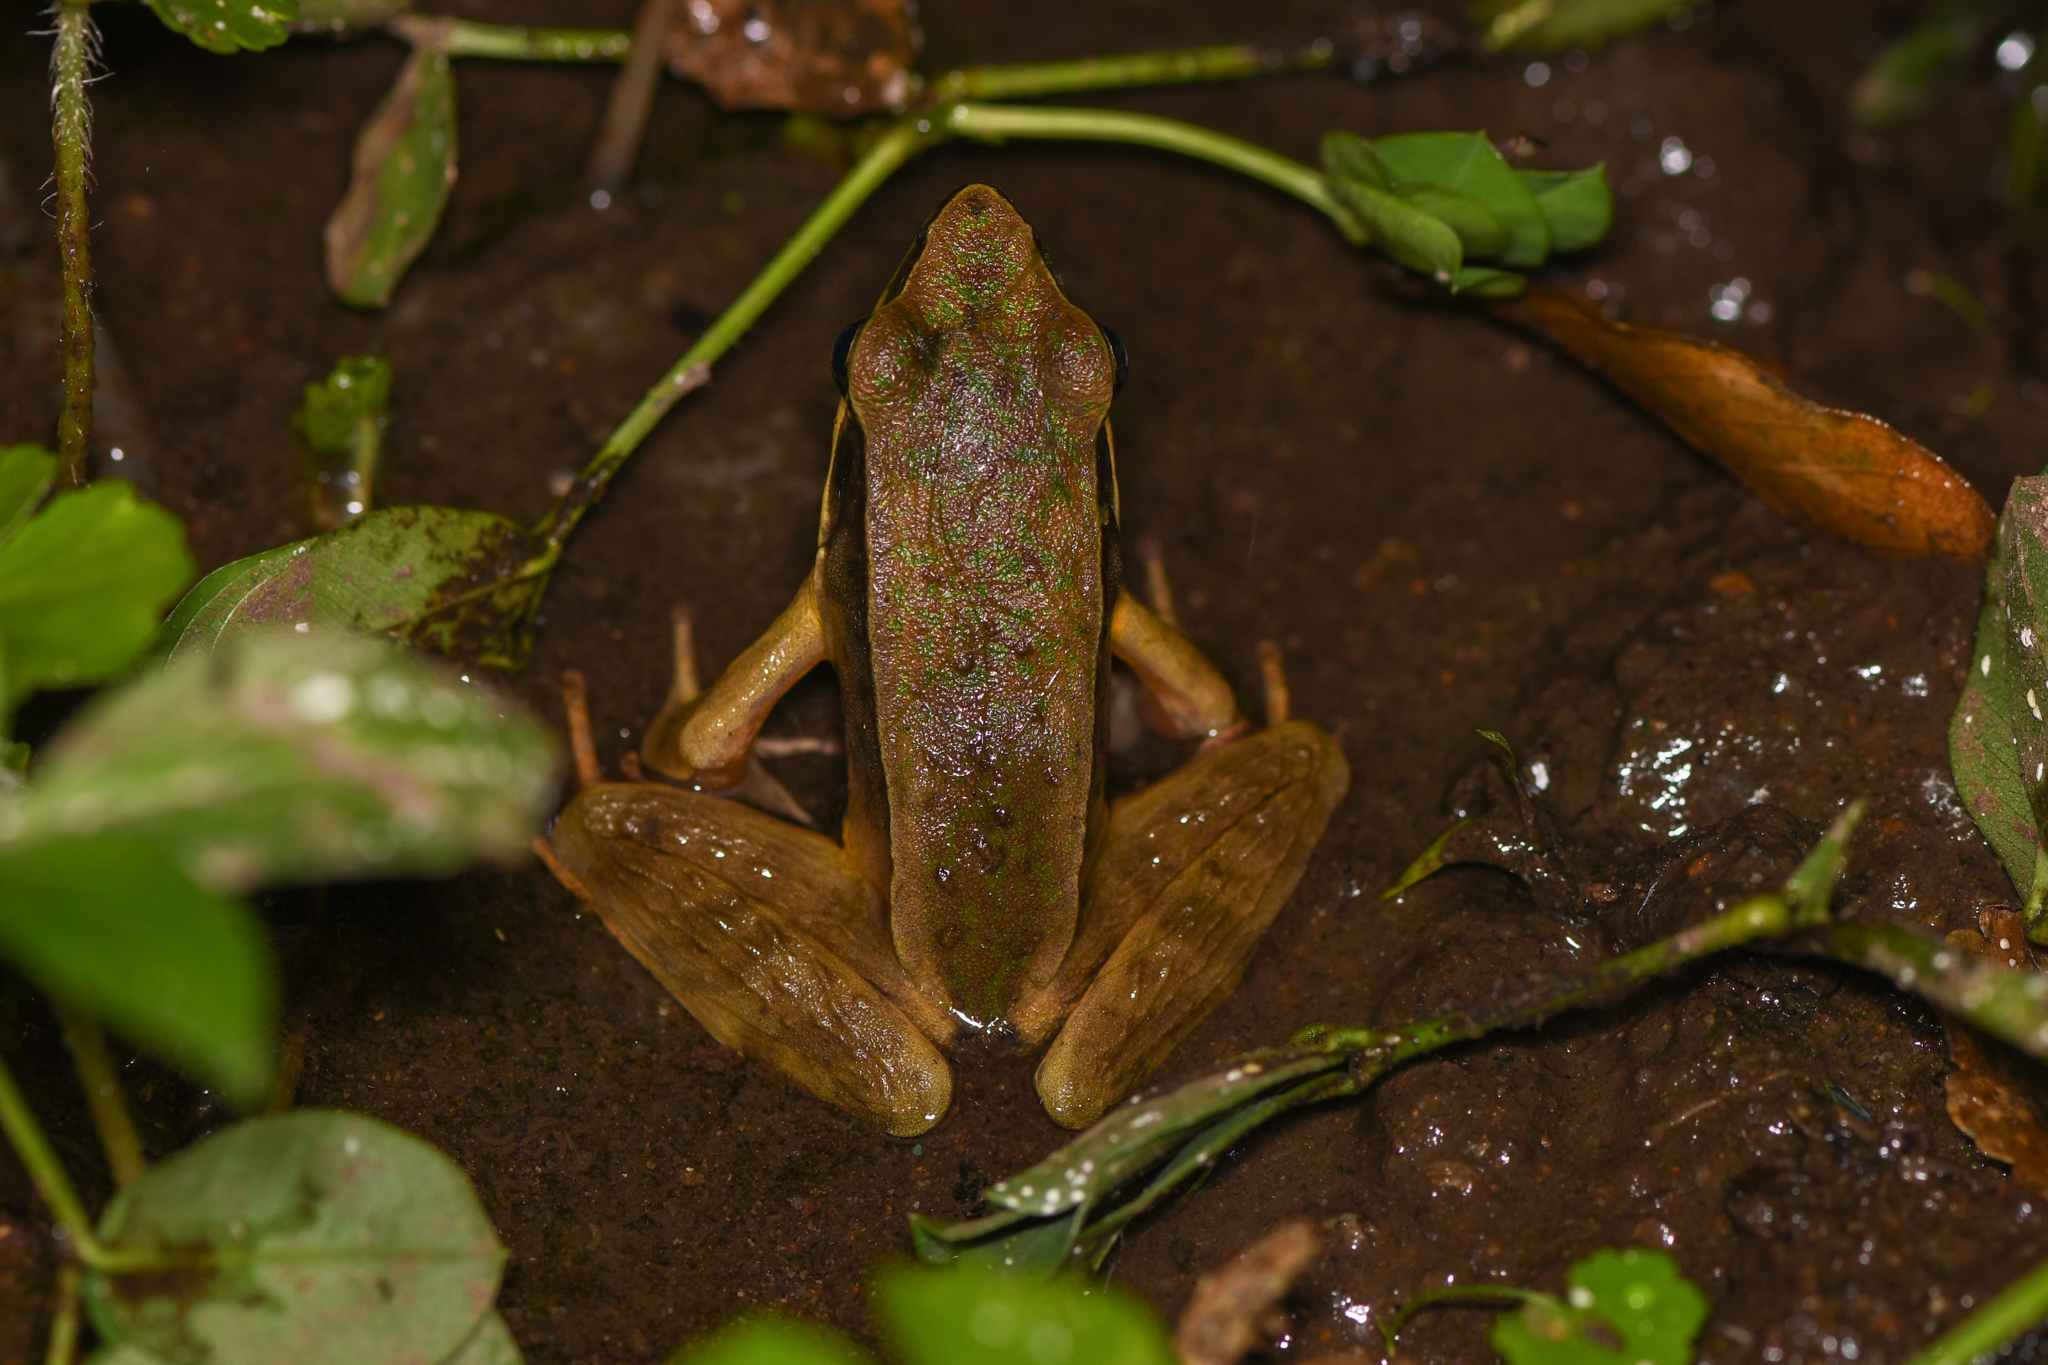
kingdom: Animalia
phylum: Chordata
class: Amphibia
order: Anura
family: Ranidae
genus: Lithobates
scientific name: Lithobates warszewitschii
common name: Warszewitsch's frog
